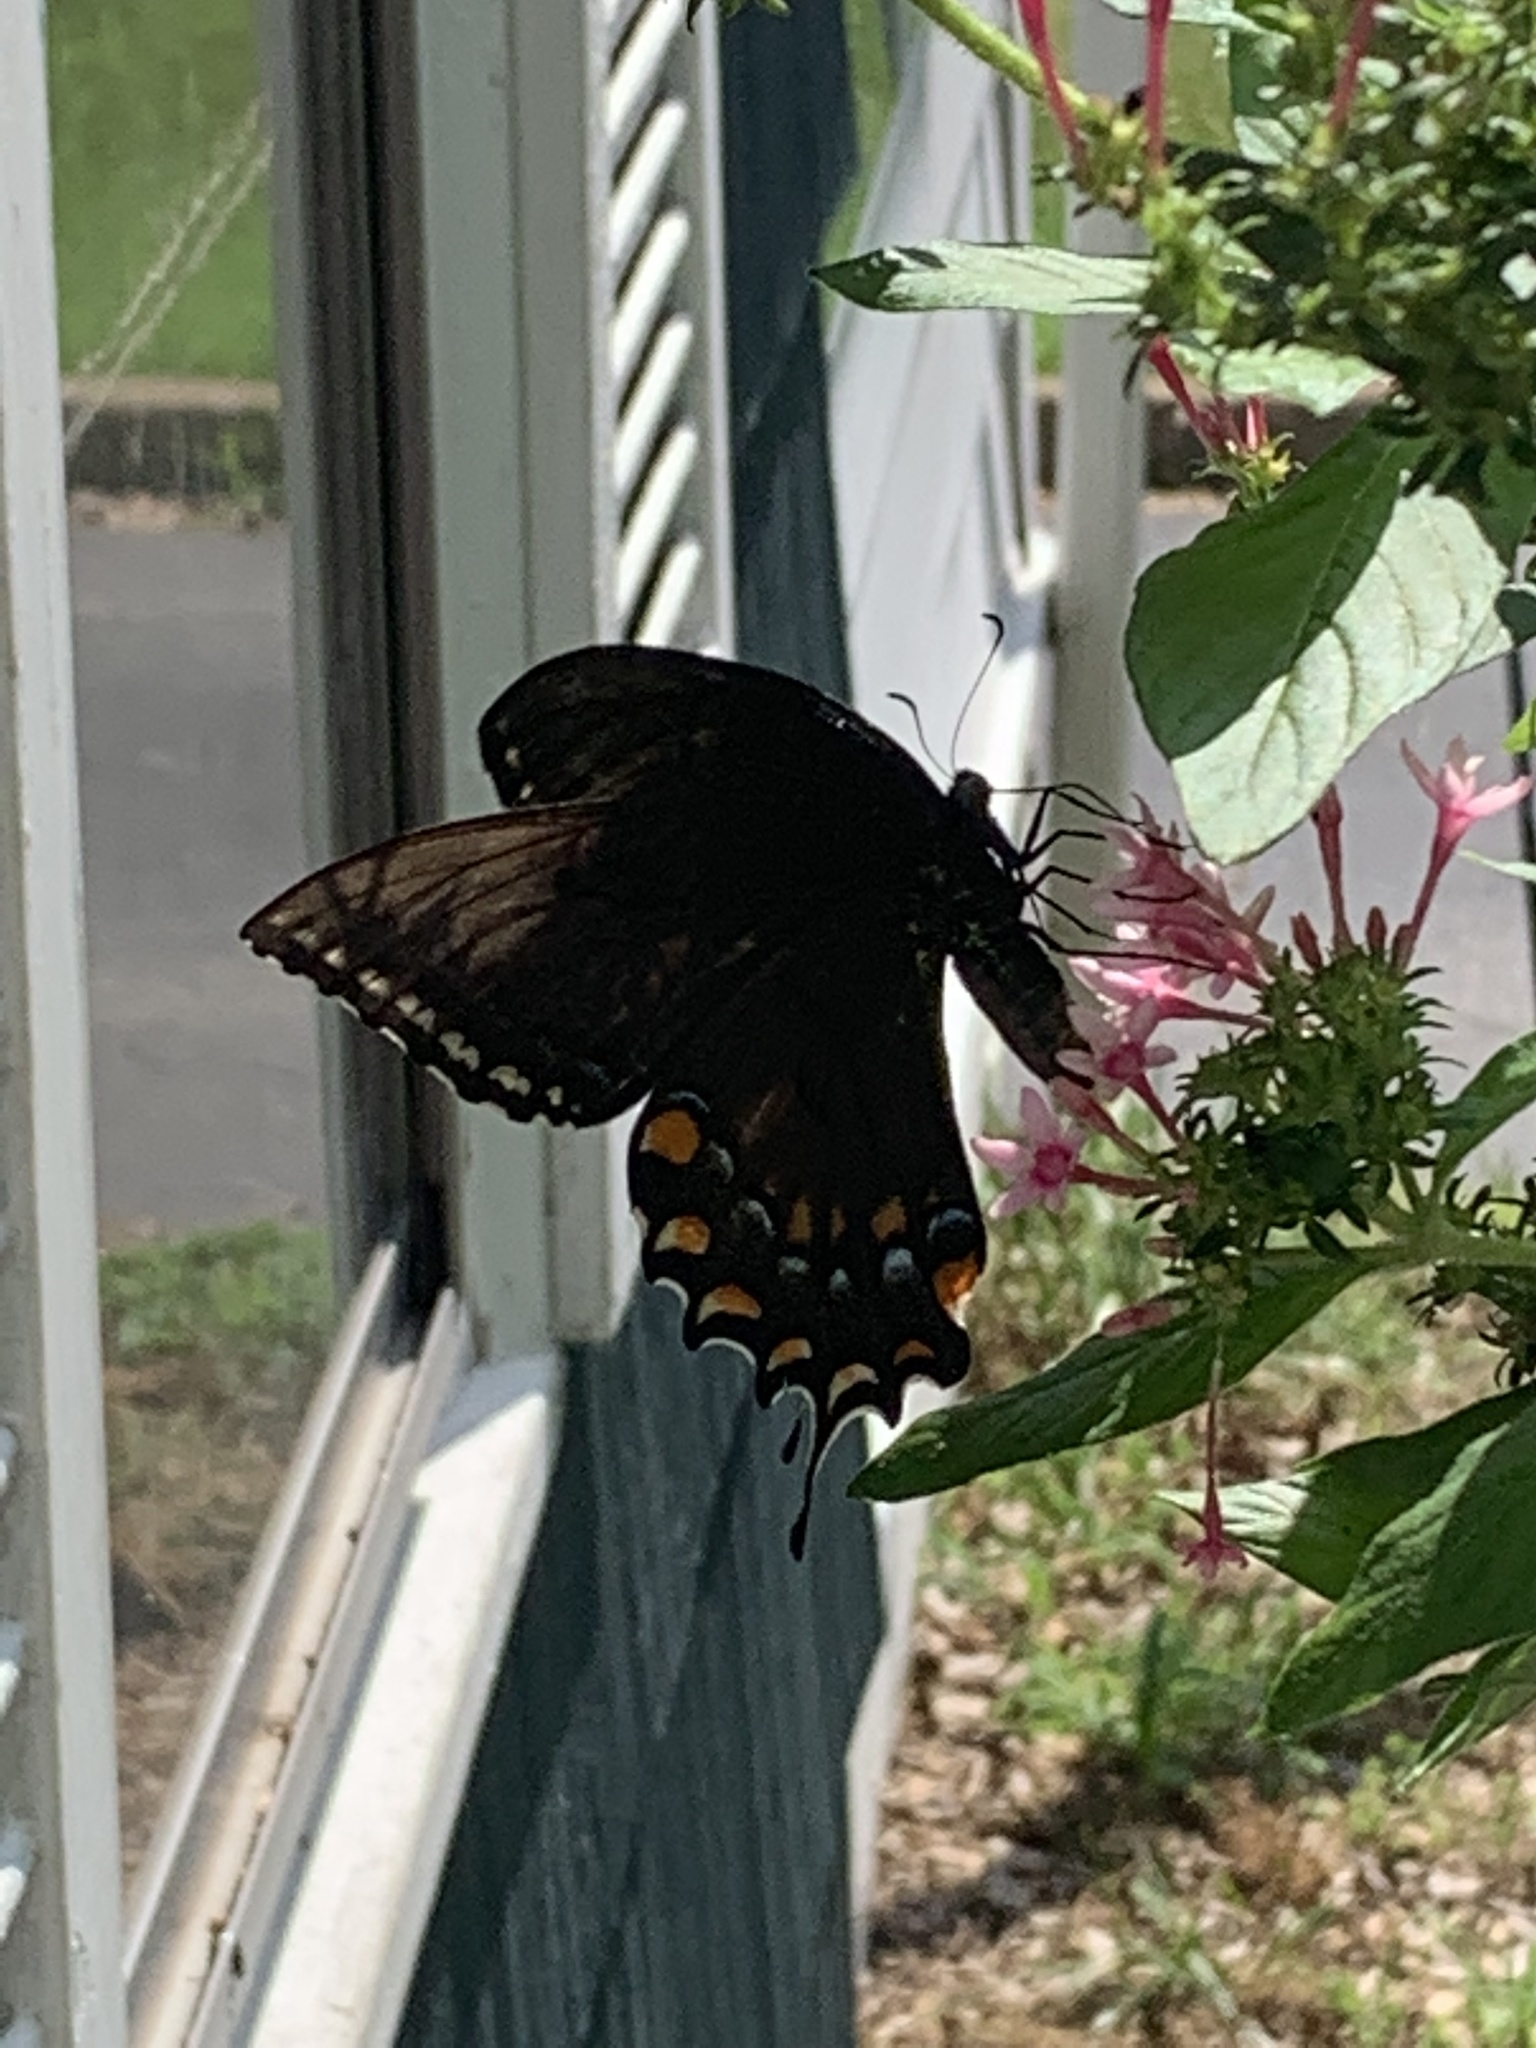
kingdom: Animalia
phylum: Arthropoda
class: Insecta
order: Lepidoptera
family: Papilionidae
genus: Papilio
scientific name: Papilio glaucus
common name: Tiger swallowtail
